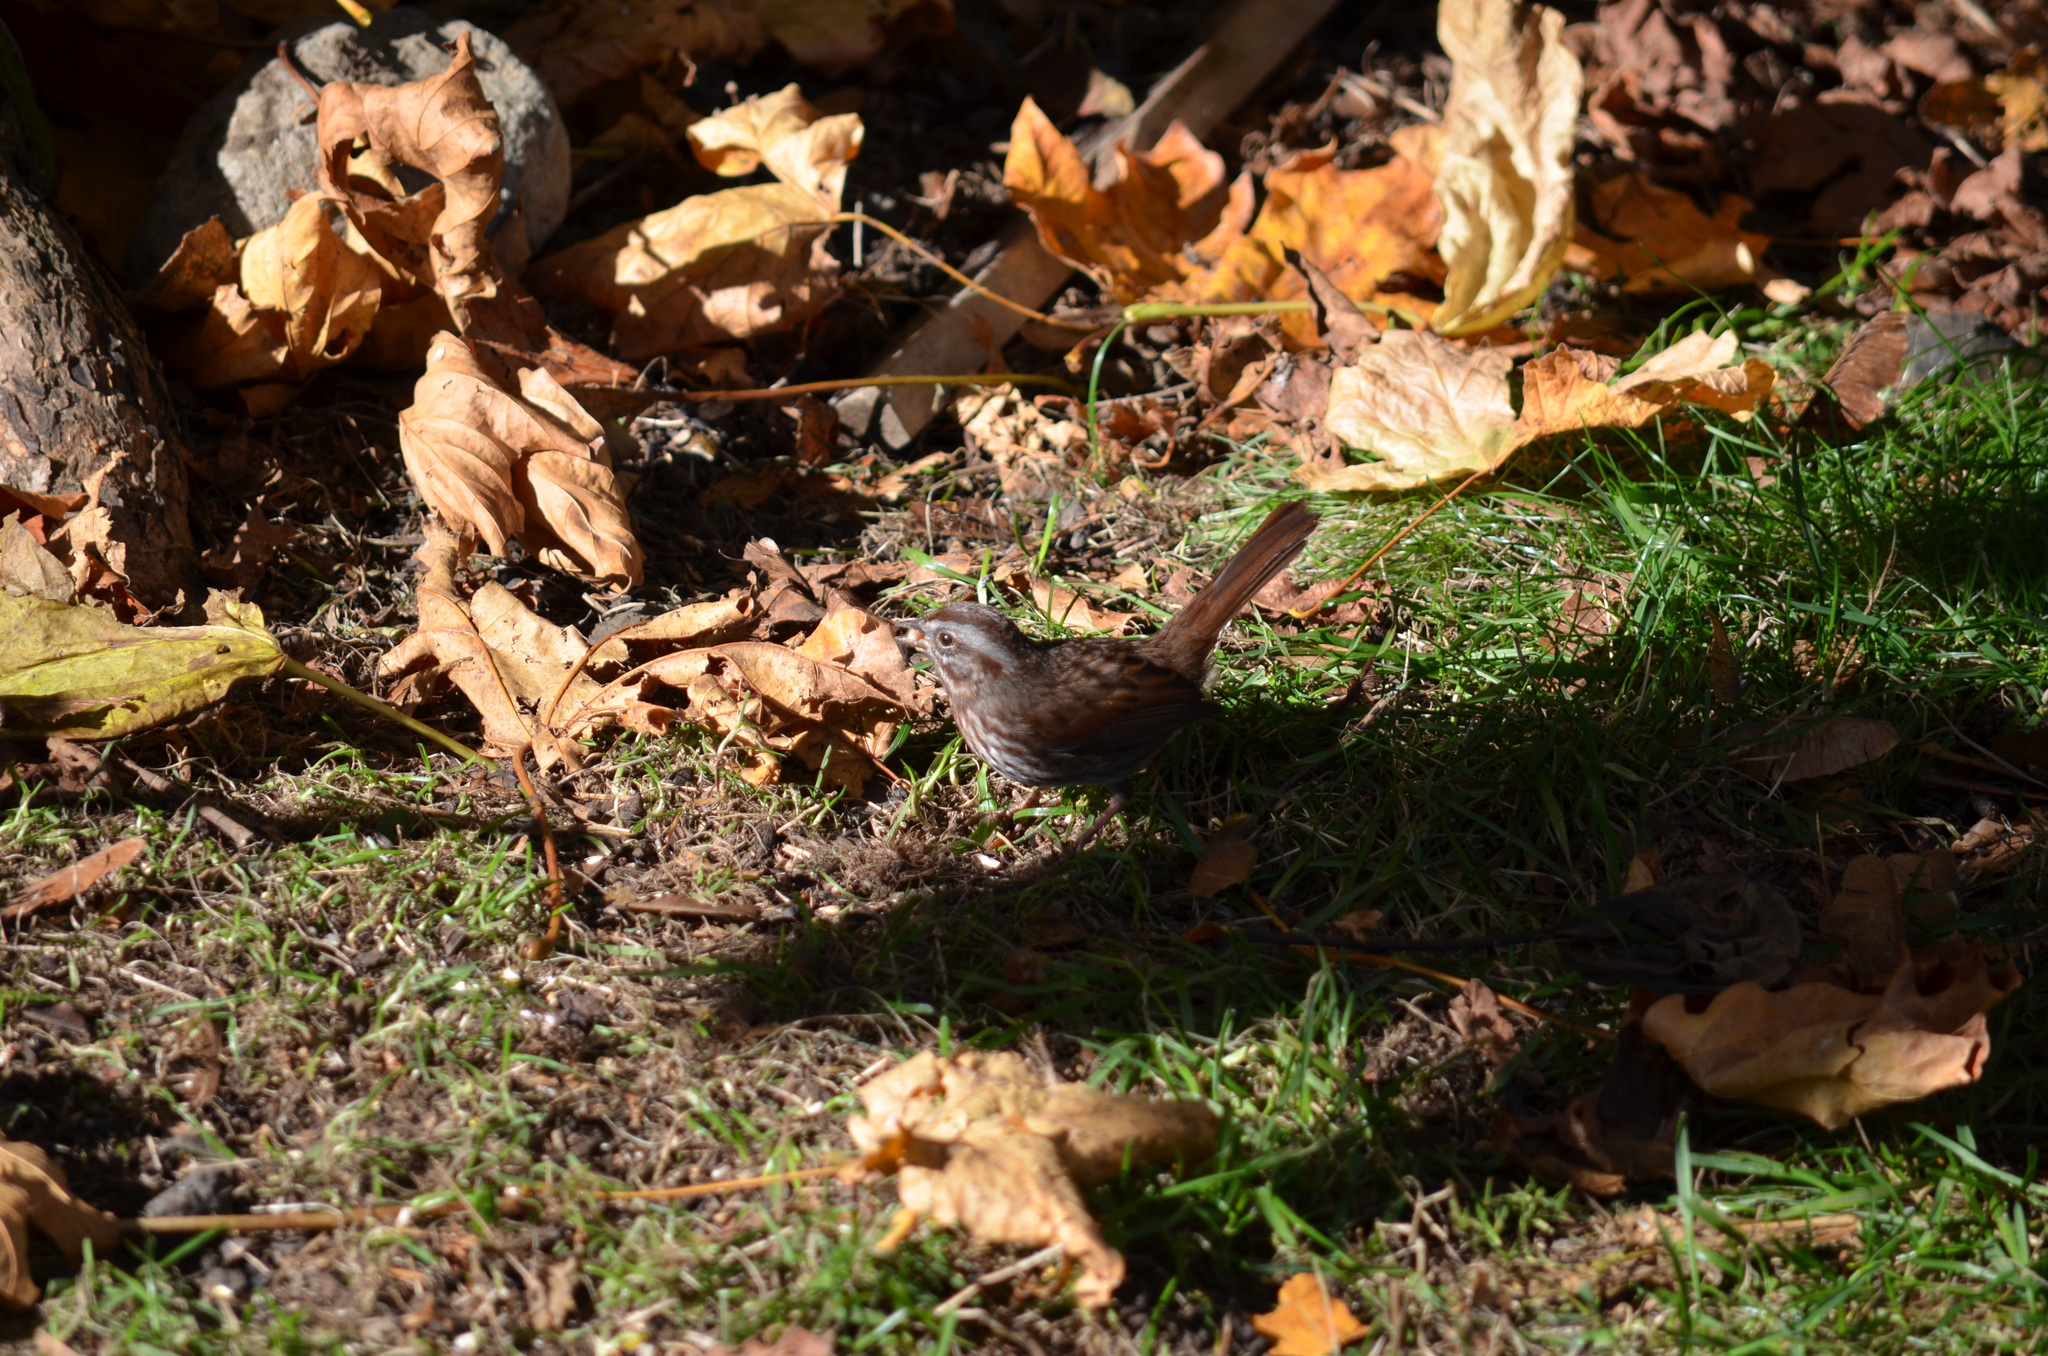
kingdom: Animalia
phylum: Chordata
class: Aves
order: Passeriformes
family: Passerellidae
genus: Melospiza
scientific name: Melospiza melodia
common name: Song sparrow
